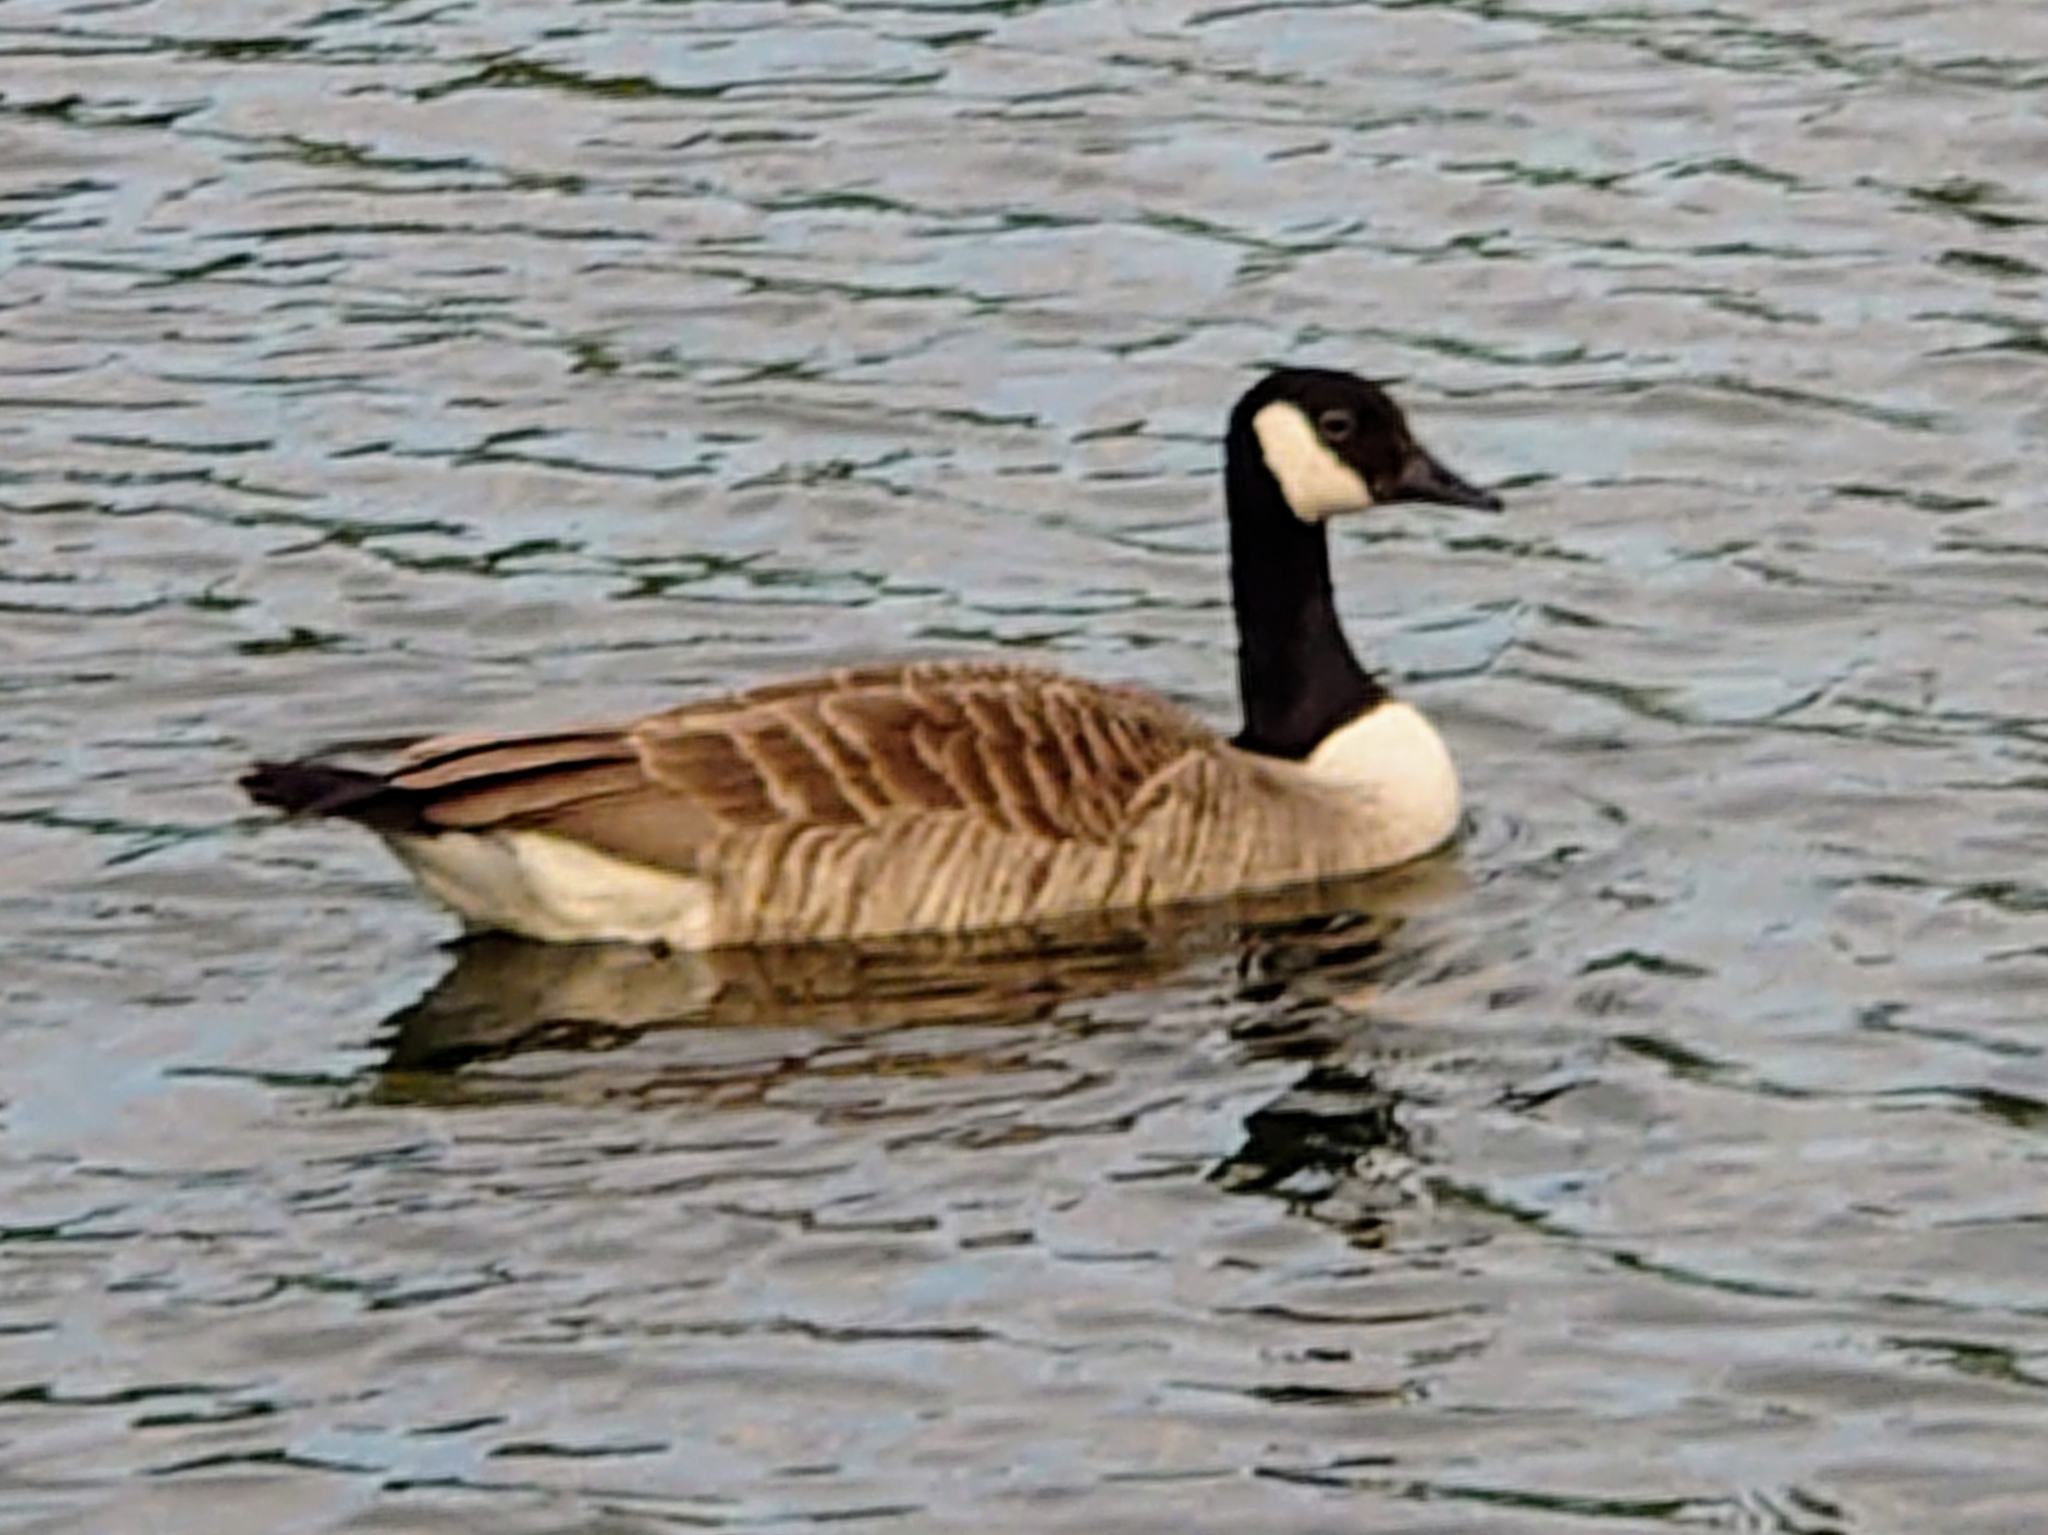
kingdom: Animalia
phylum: Chordata
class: Aves
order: Anseriformes
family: Anatidae
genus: Branta
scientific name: Branta canadensis
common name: Canada goose
